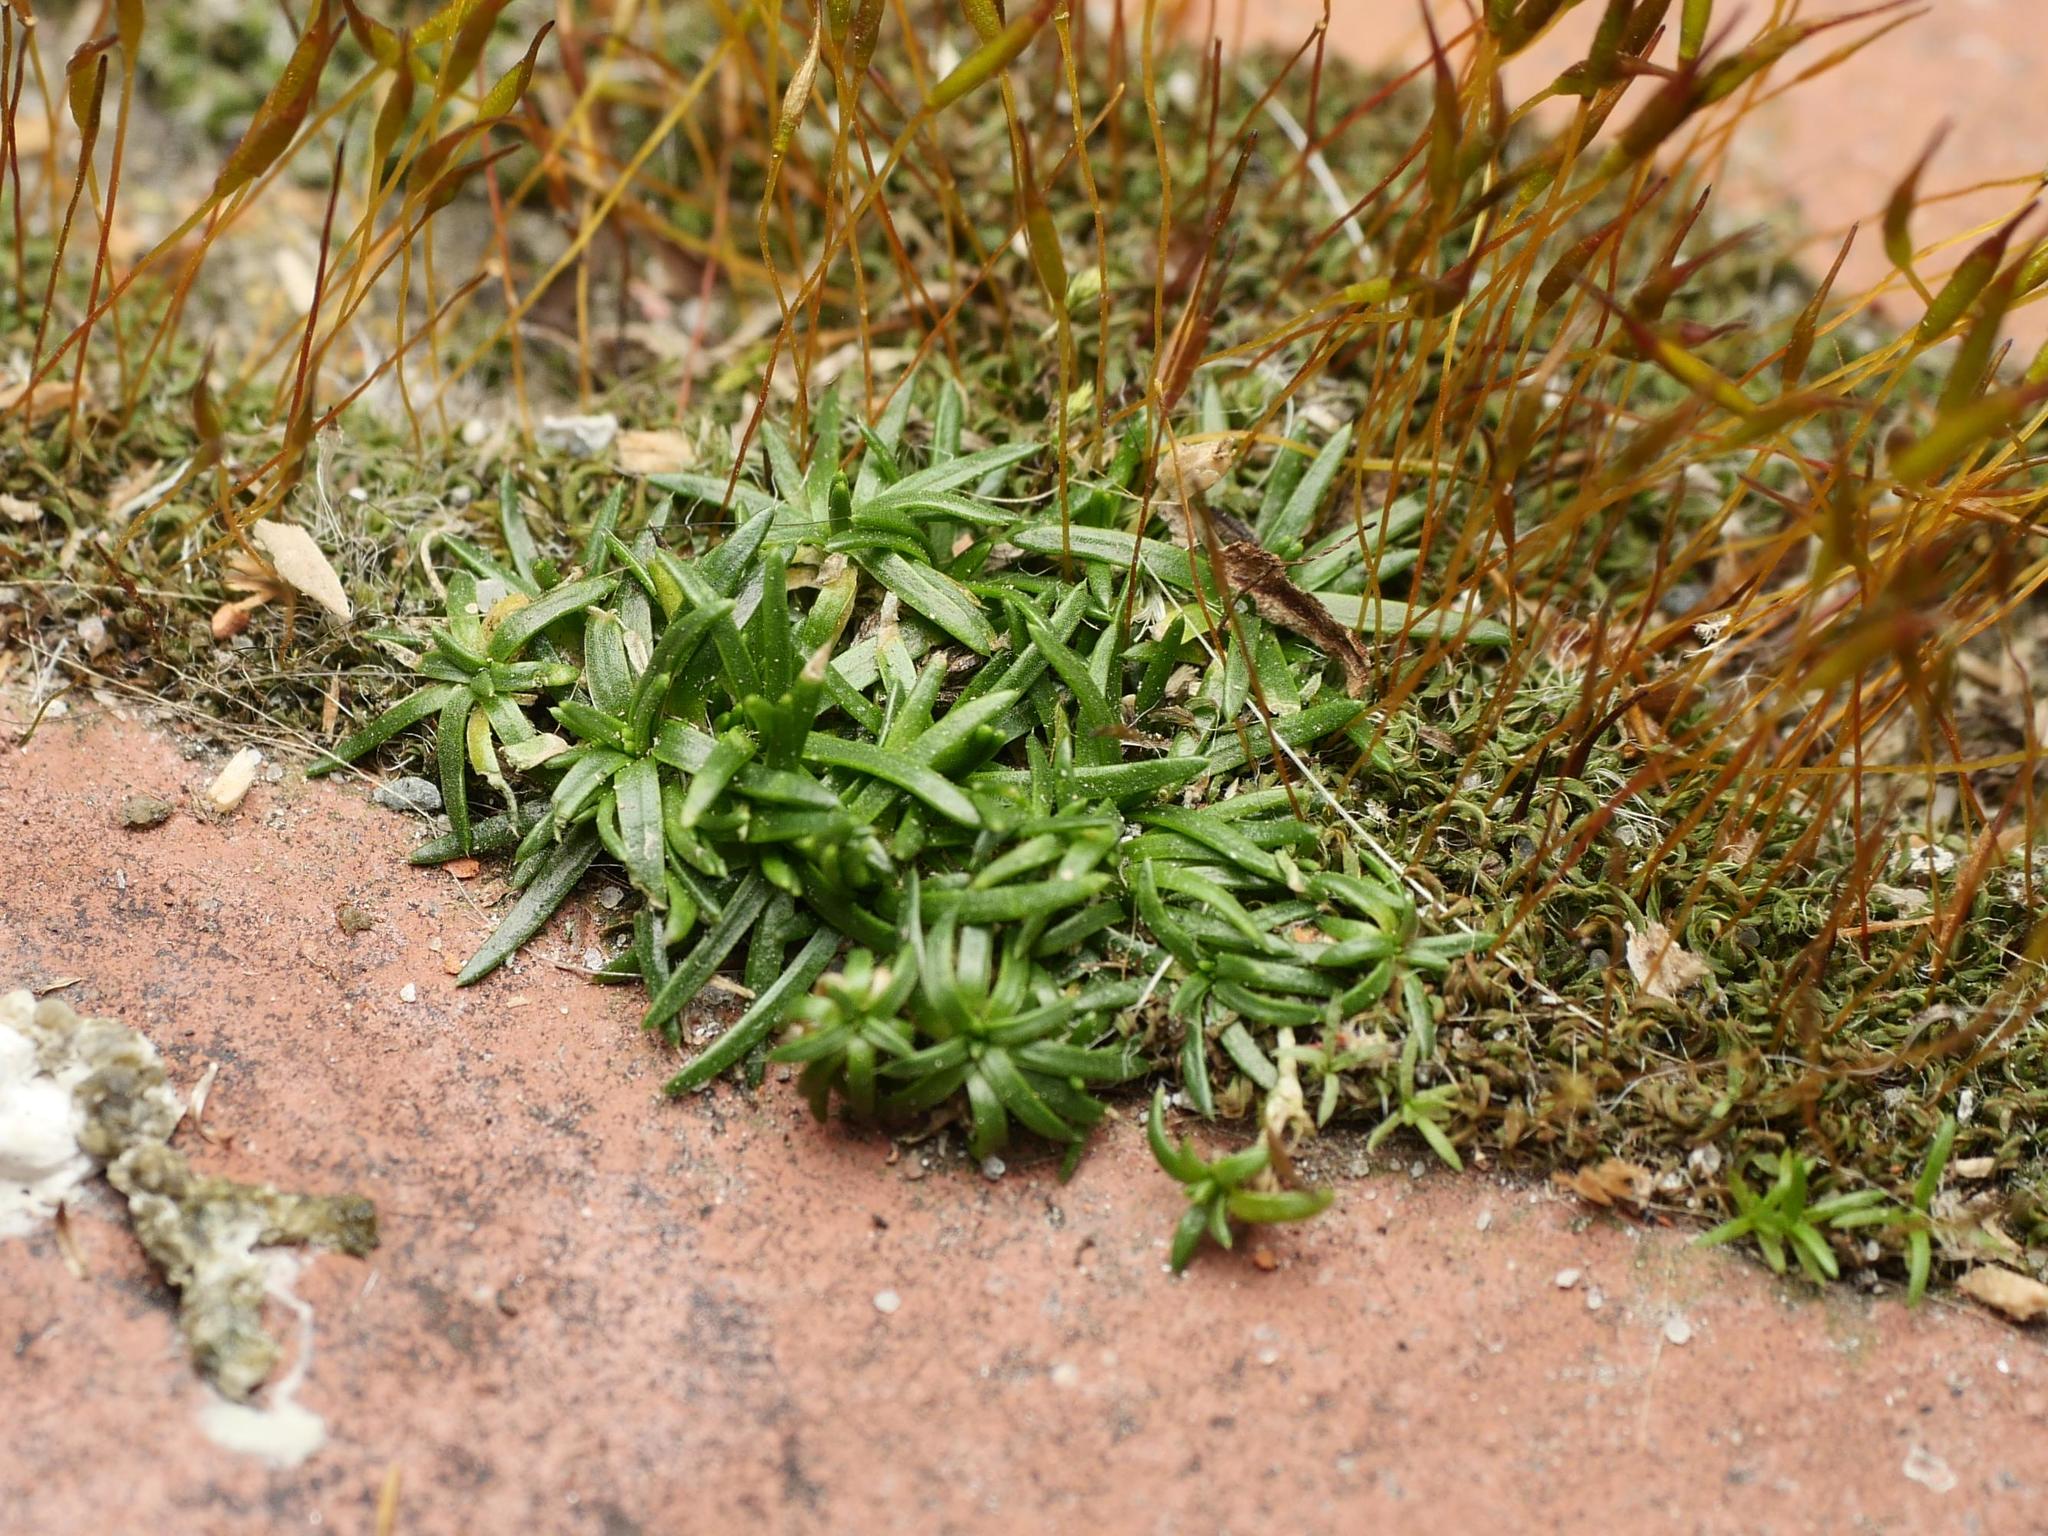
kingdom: Plantae
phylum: Tracheophyta
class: Magnoliopsida
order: Caryophyllales
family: Caryophyllaceae
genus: Sagina
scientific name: Sagina procumbens
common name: Procumbent pearlwort
